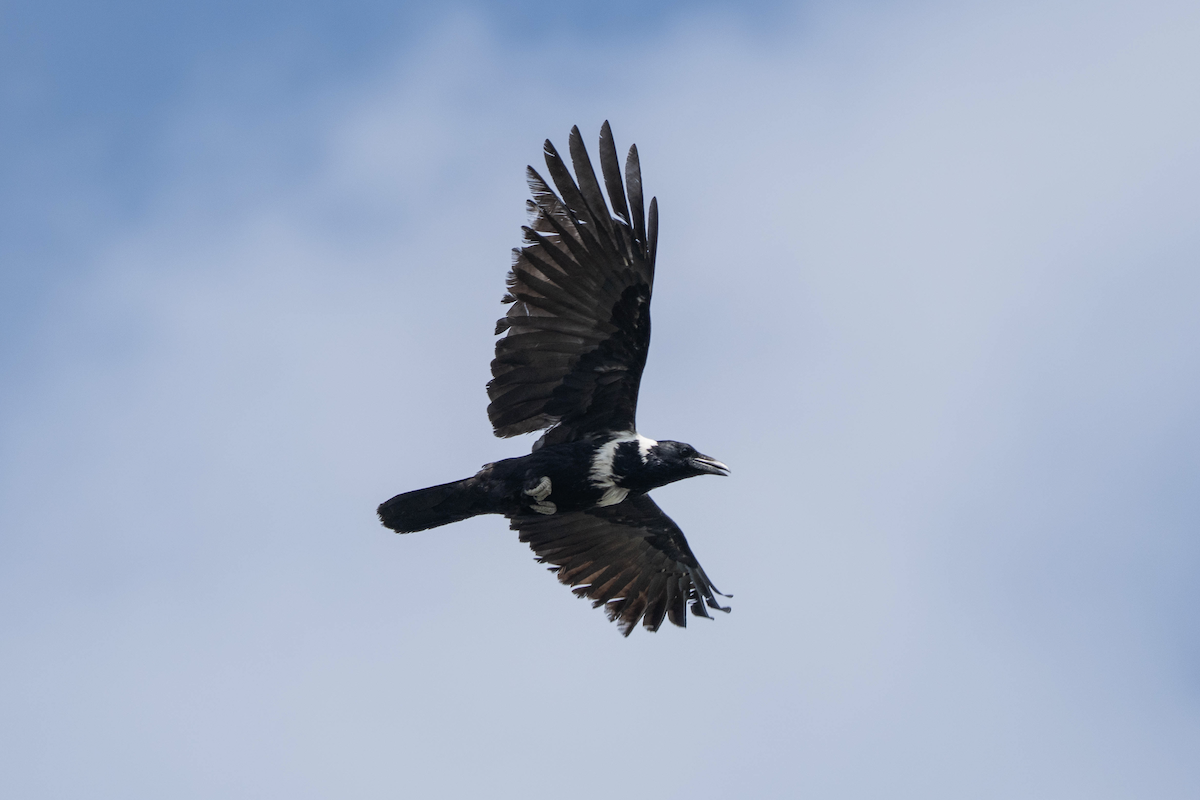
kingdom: Animalia
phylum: Chordata
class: Aves
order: Passeriformes
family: Corvidae
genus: Corvus
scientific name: Corvus pectoralis
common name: Collared crow
